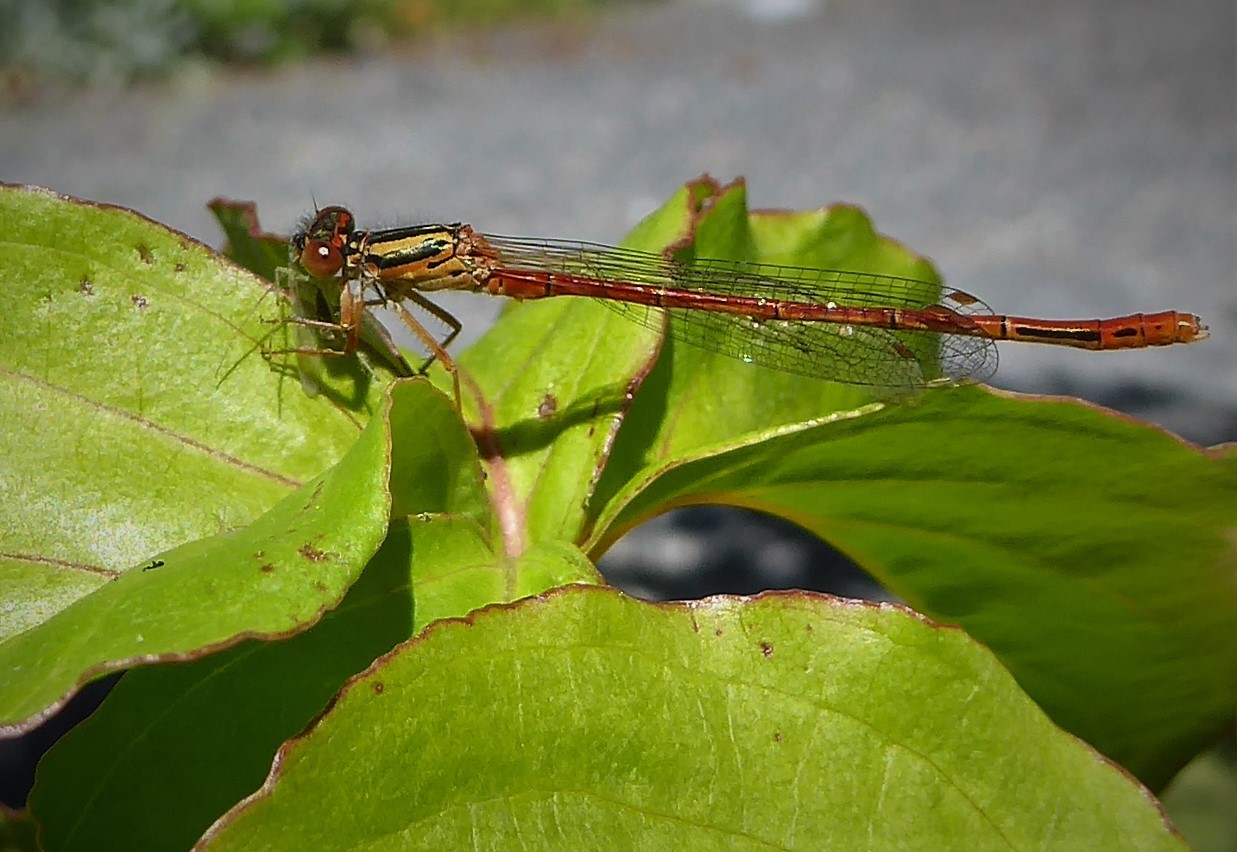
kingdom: Animalia
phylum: Arthropoda
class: Insecta
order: Odonata
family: Coenagrionidae
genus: Xanthocnemis
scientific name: Xanthocnemis zealandica
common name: Common redcoat damselfly
